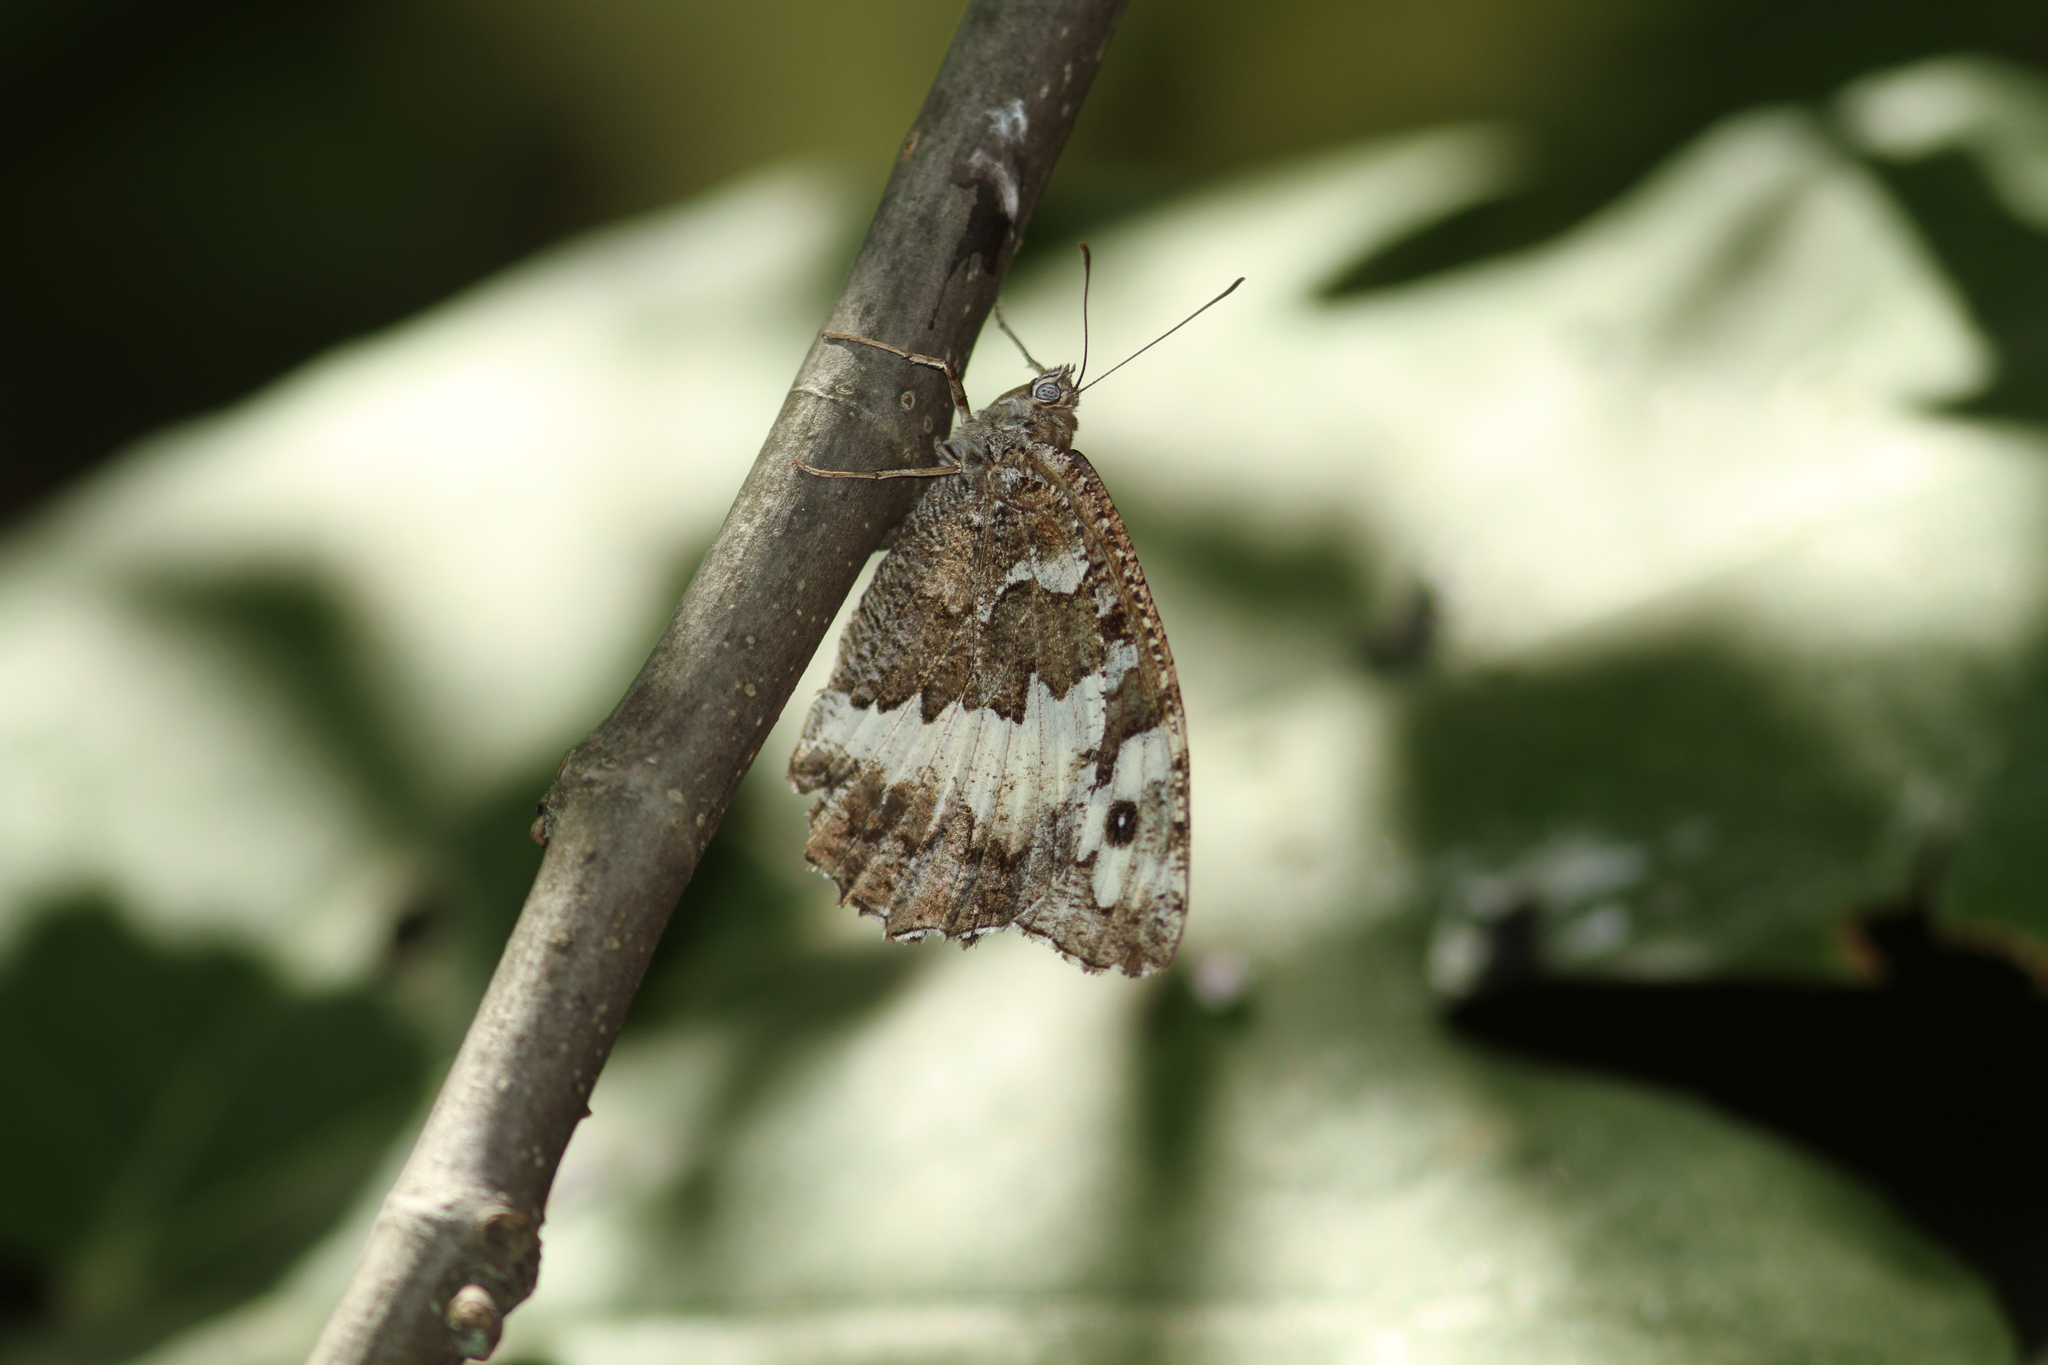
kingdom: Animalia
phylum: Arthropoda
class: Insecta
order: Lepidoptera
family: Lycaenidae
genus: Loweia
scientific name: Loweia tityrus
